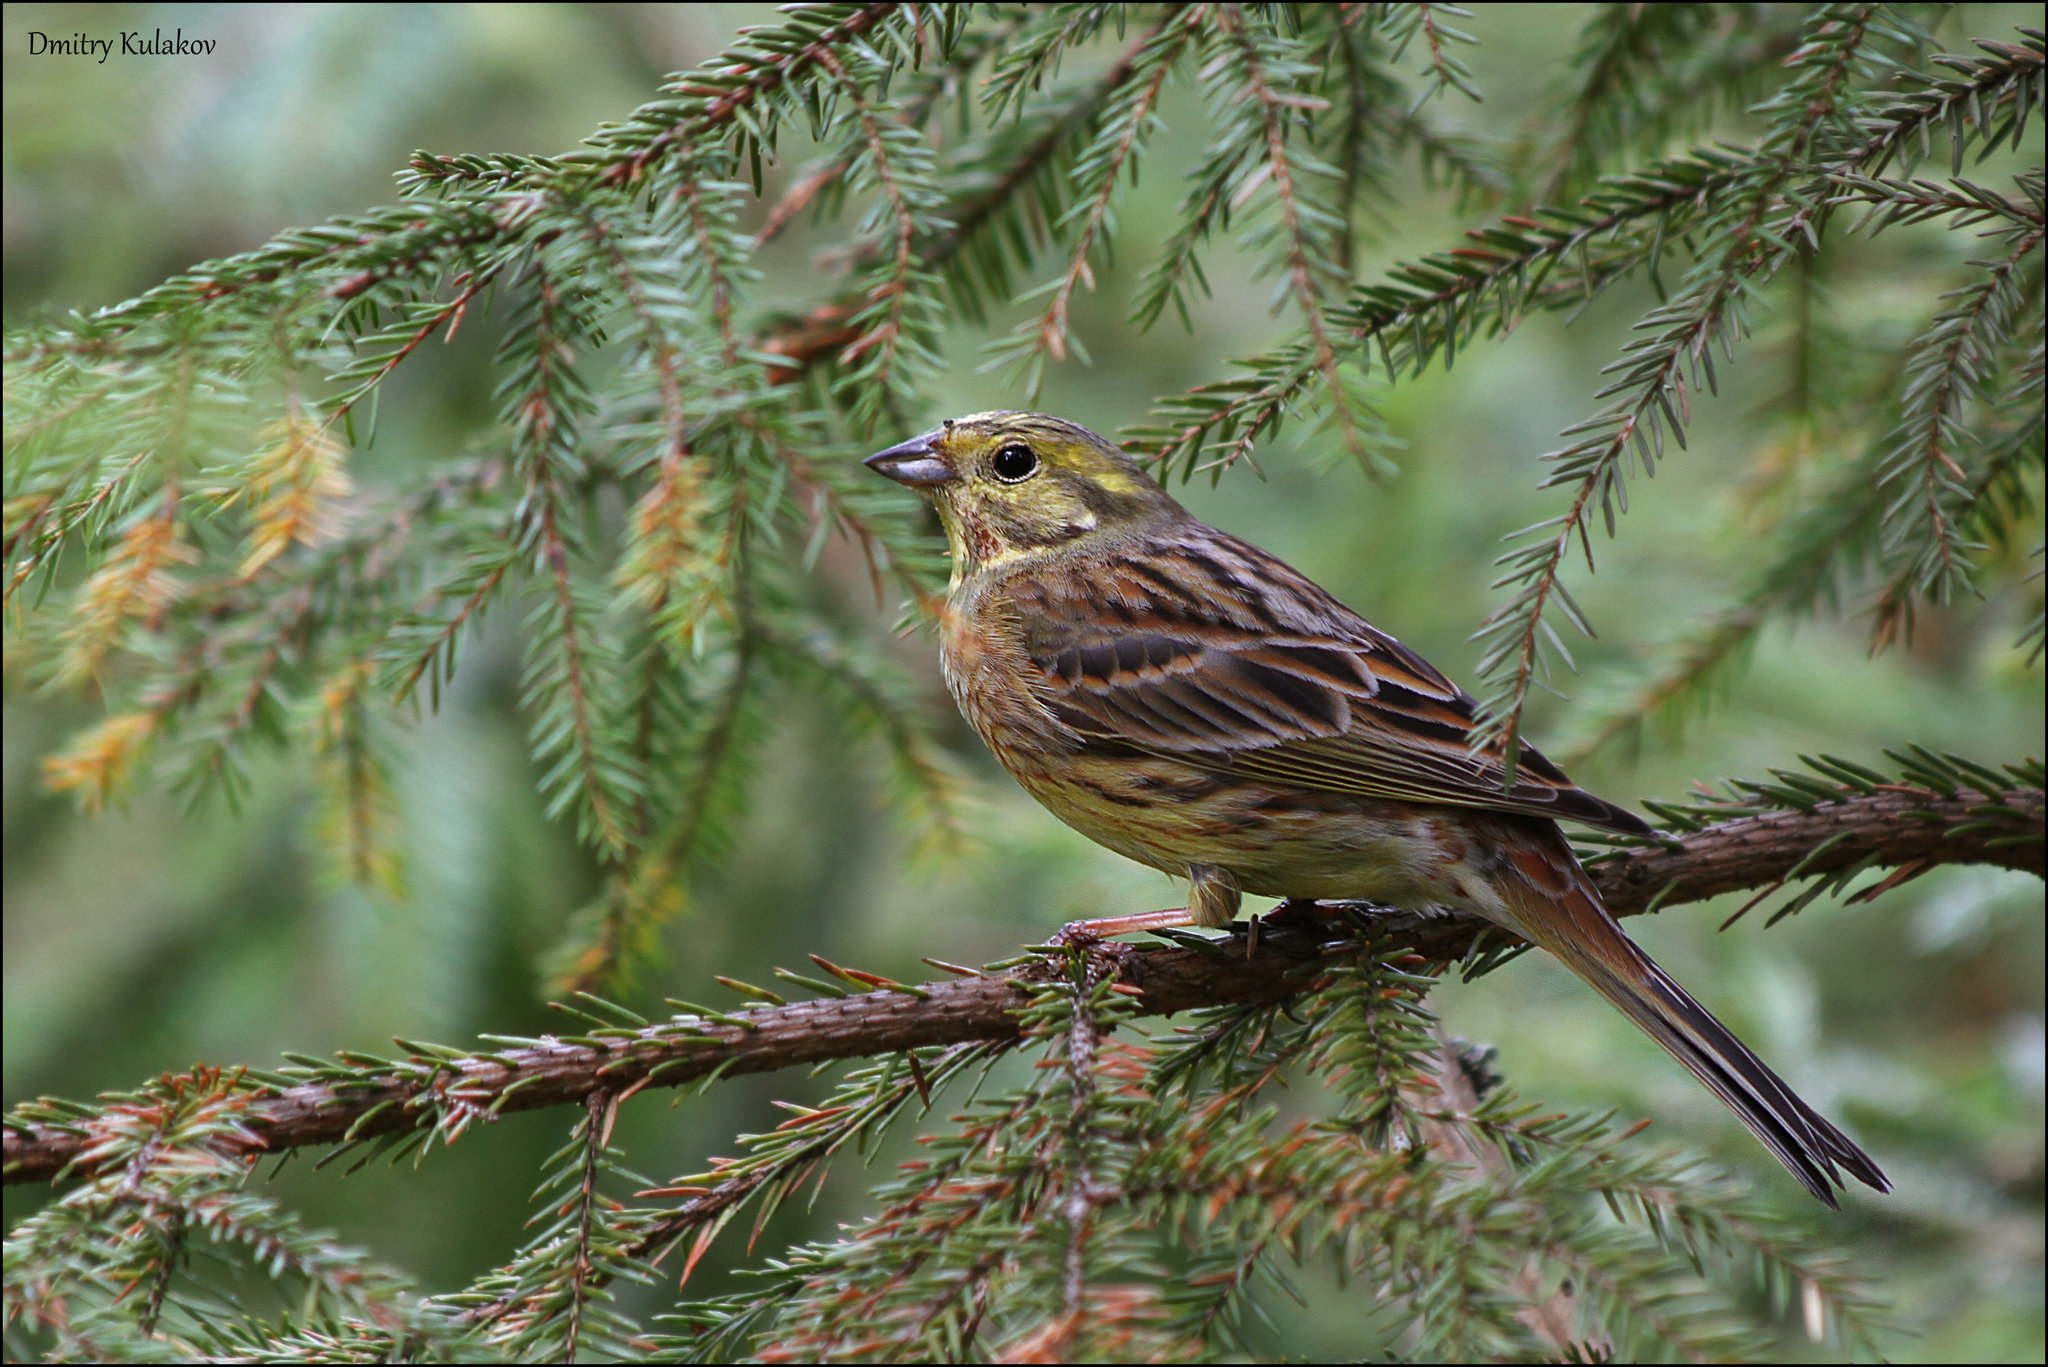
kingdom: Animalia
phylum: Chordata
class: Aves
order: Passeriformes
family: Emberizidae
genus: Emberiza
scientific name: Emberiza citrinella
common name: Yellowhammer
